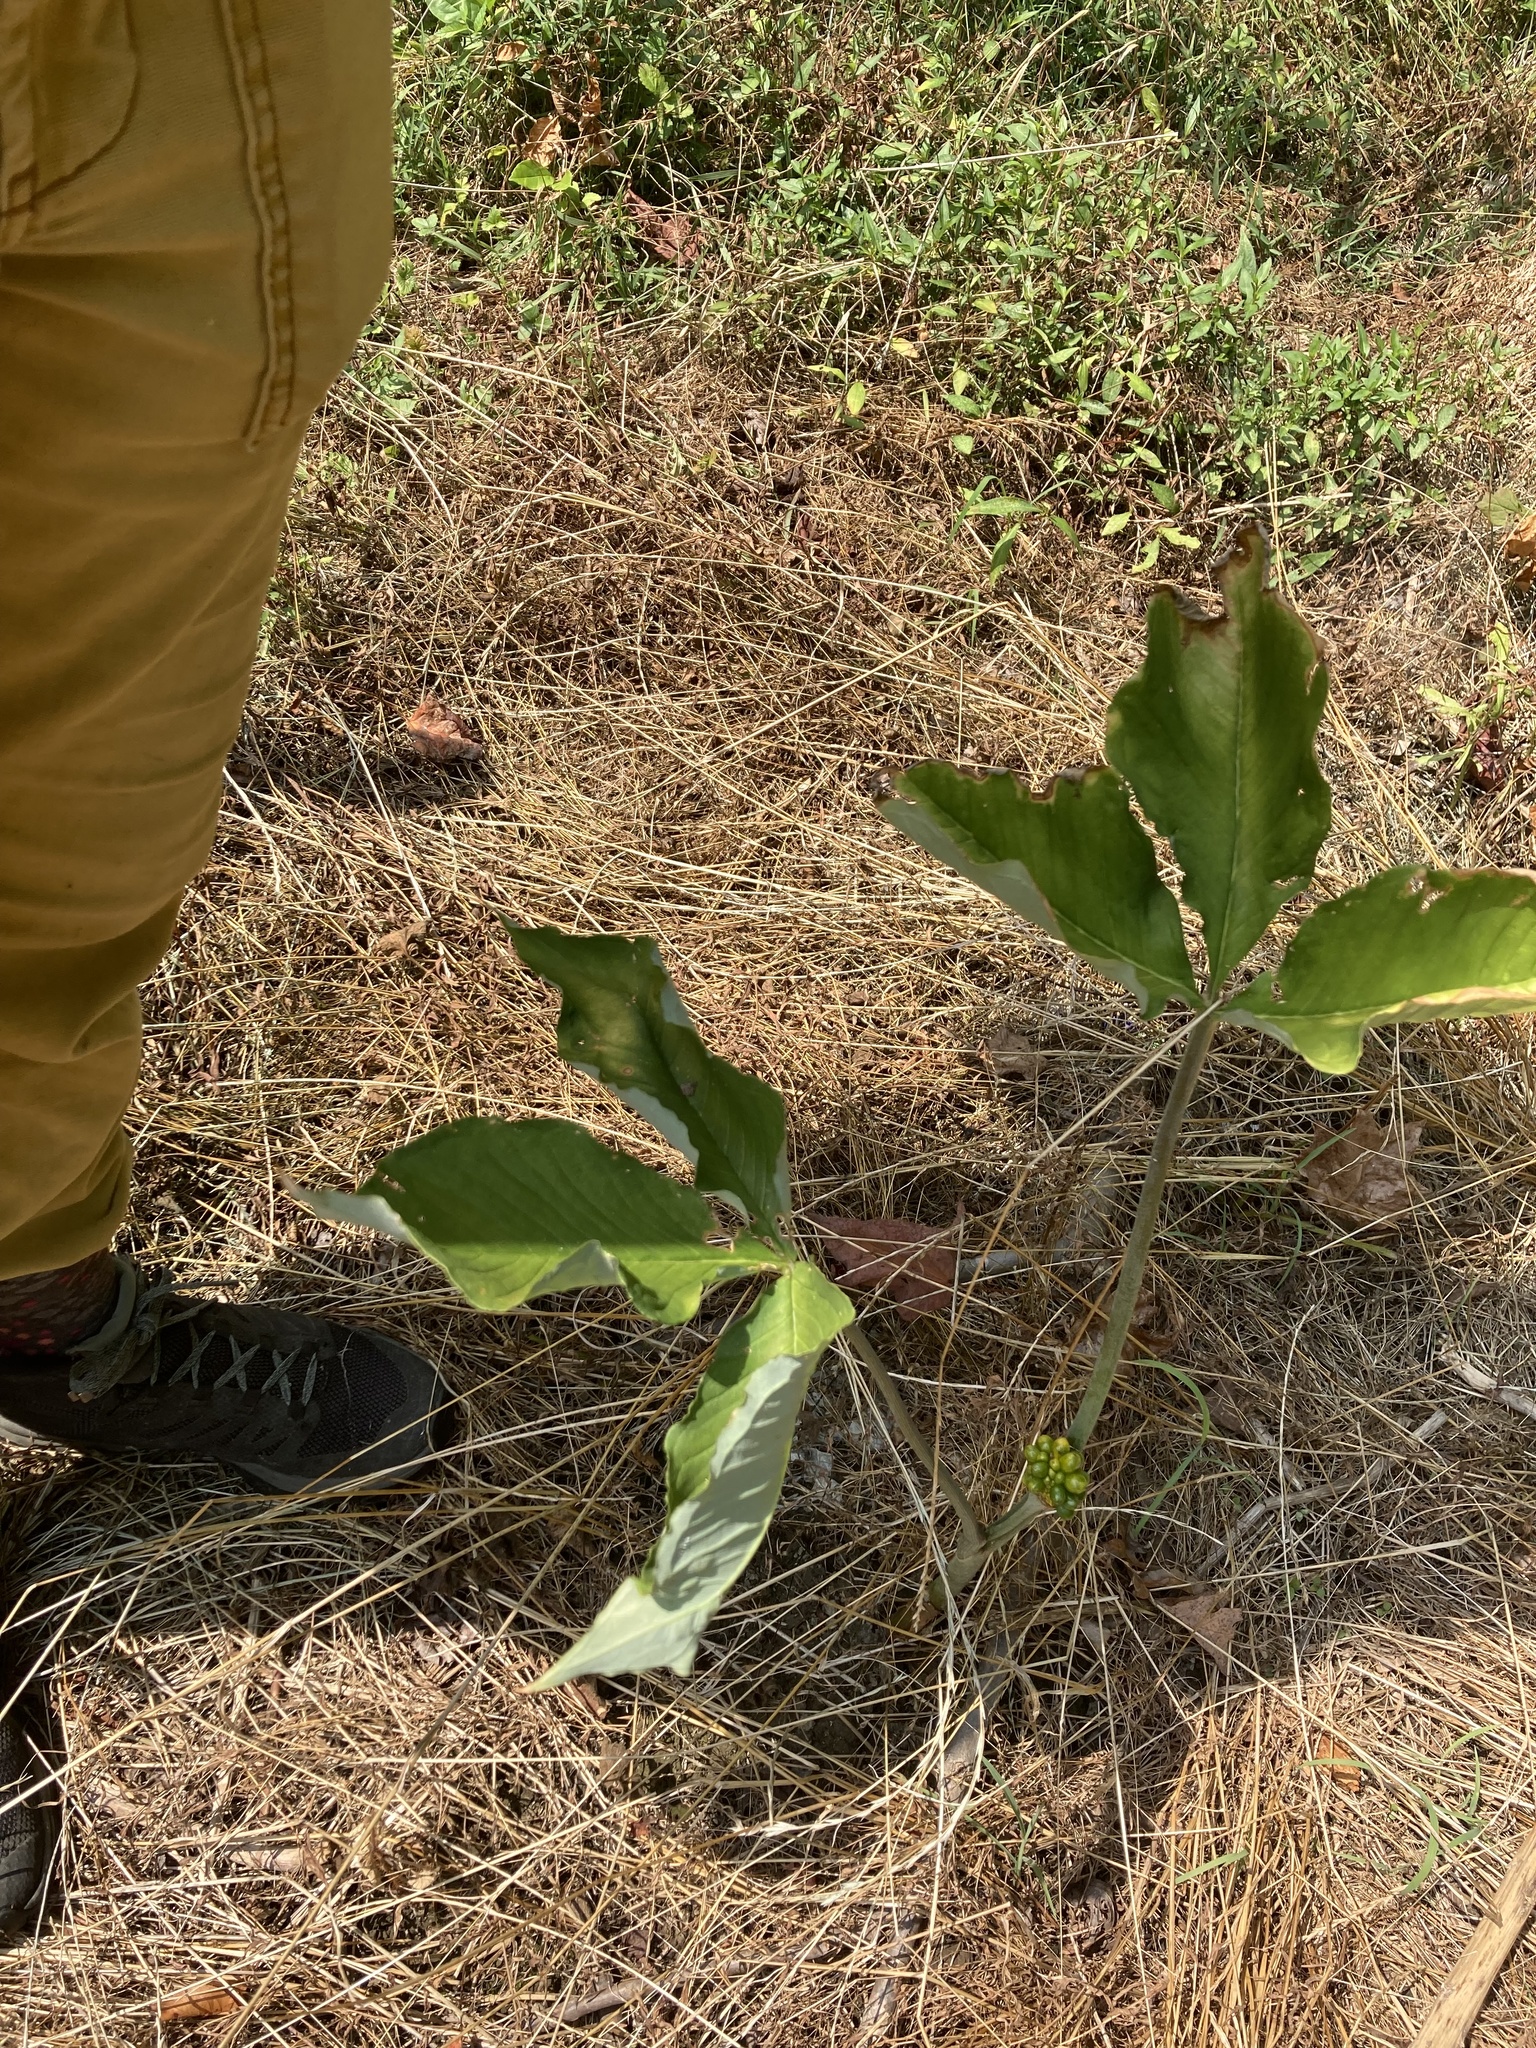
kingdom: Plantae
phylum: Tracheophyta
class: Liliopsida
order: Alismatales
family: Araceae
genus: Arisaema
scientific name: Arisaema triphyllum
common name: Jack-in-the-pulpit
